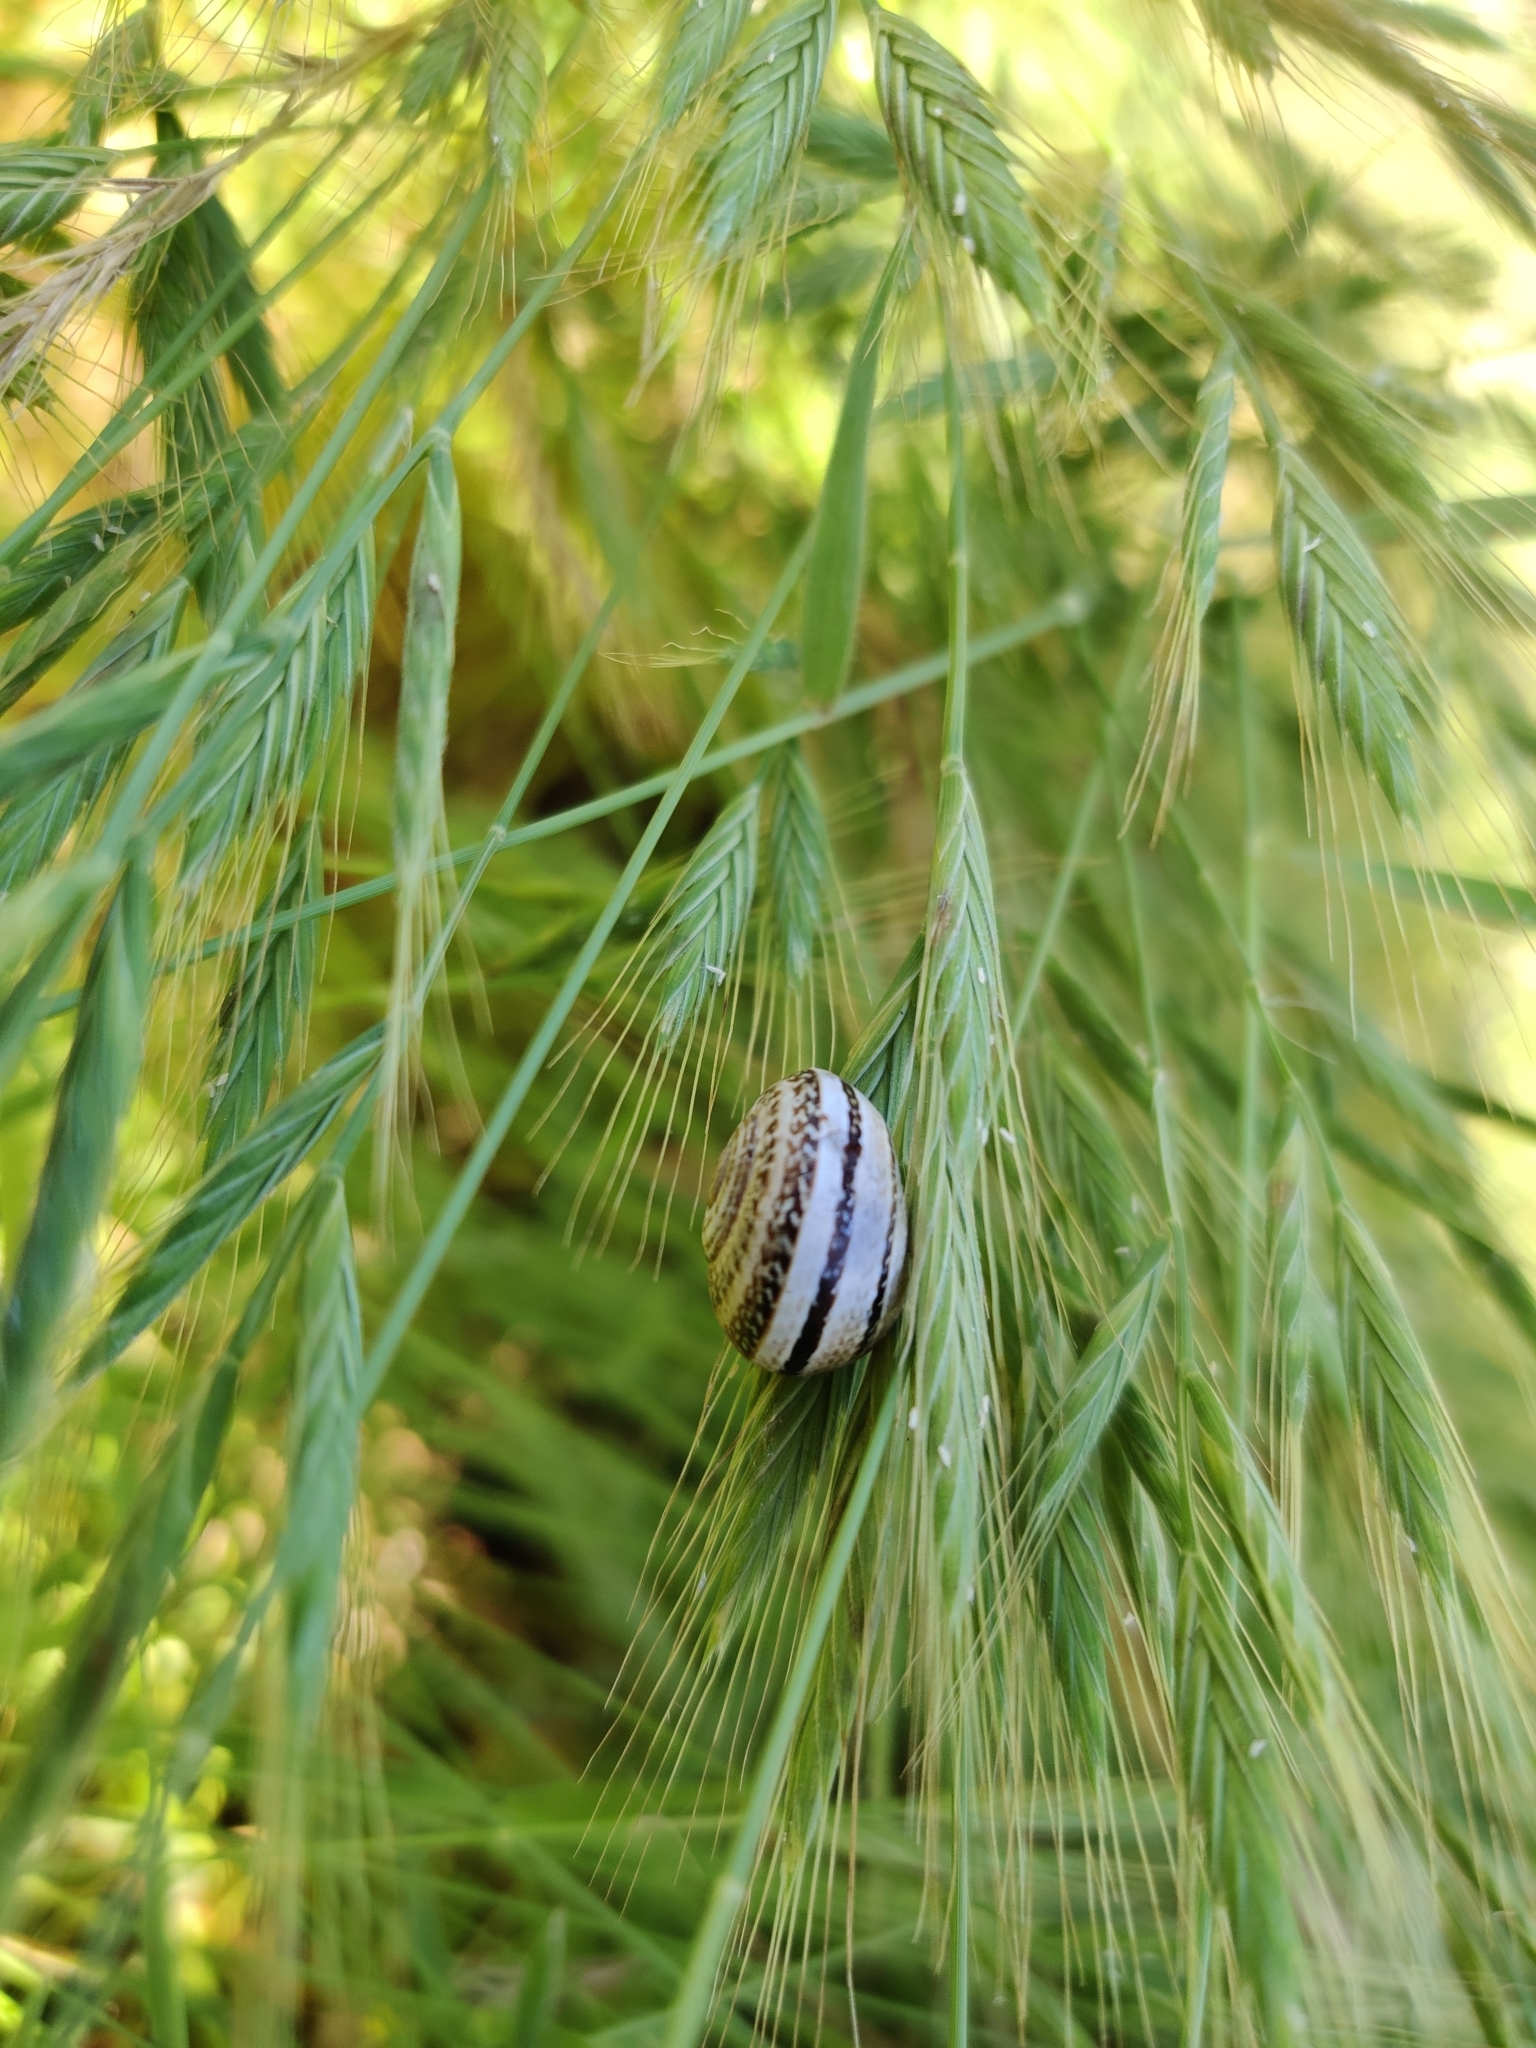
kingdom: Animalia
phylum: Mollusca
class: Gastropoda
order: Stylommatophora
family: Helicidae
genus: Otala
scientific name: Otala lactea
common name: Milk snail
